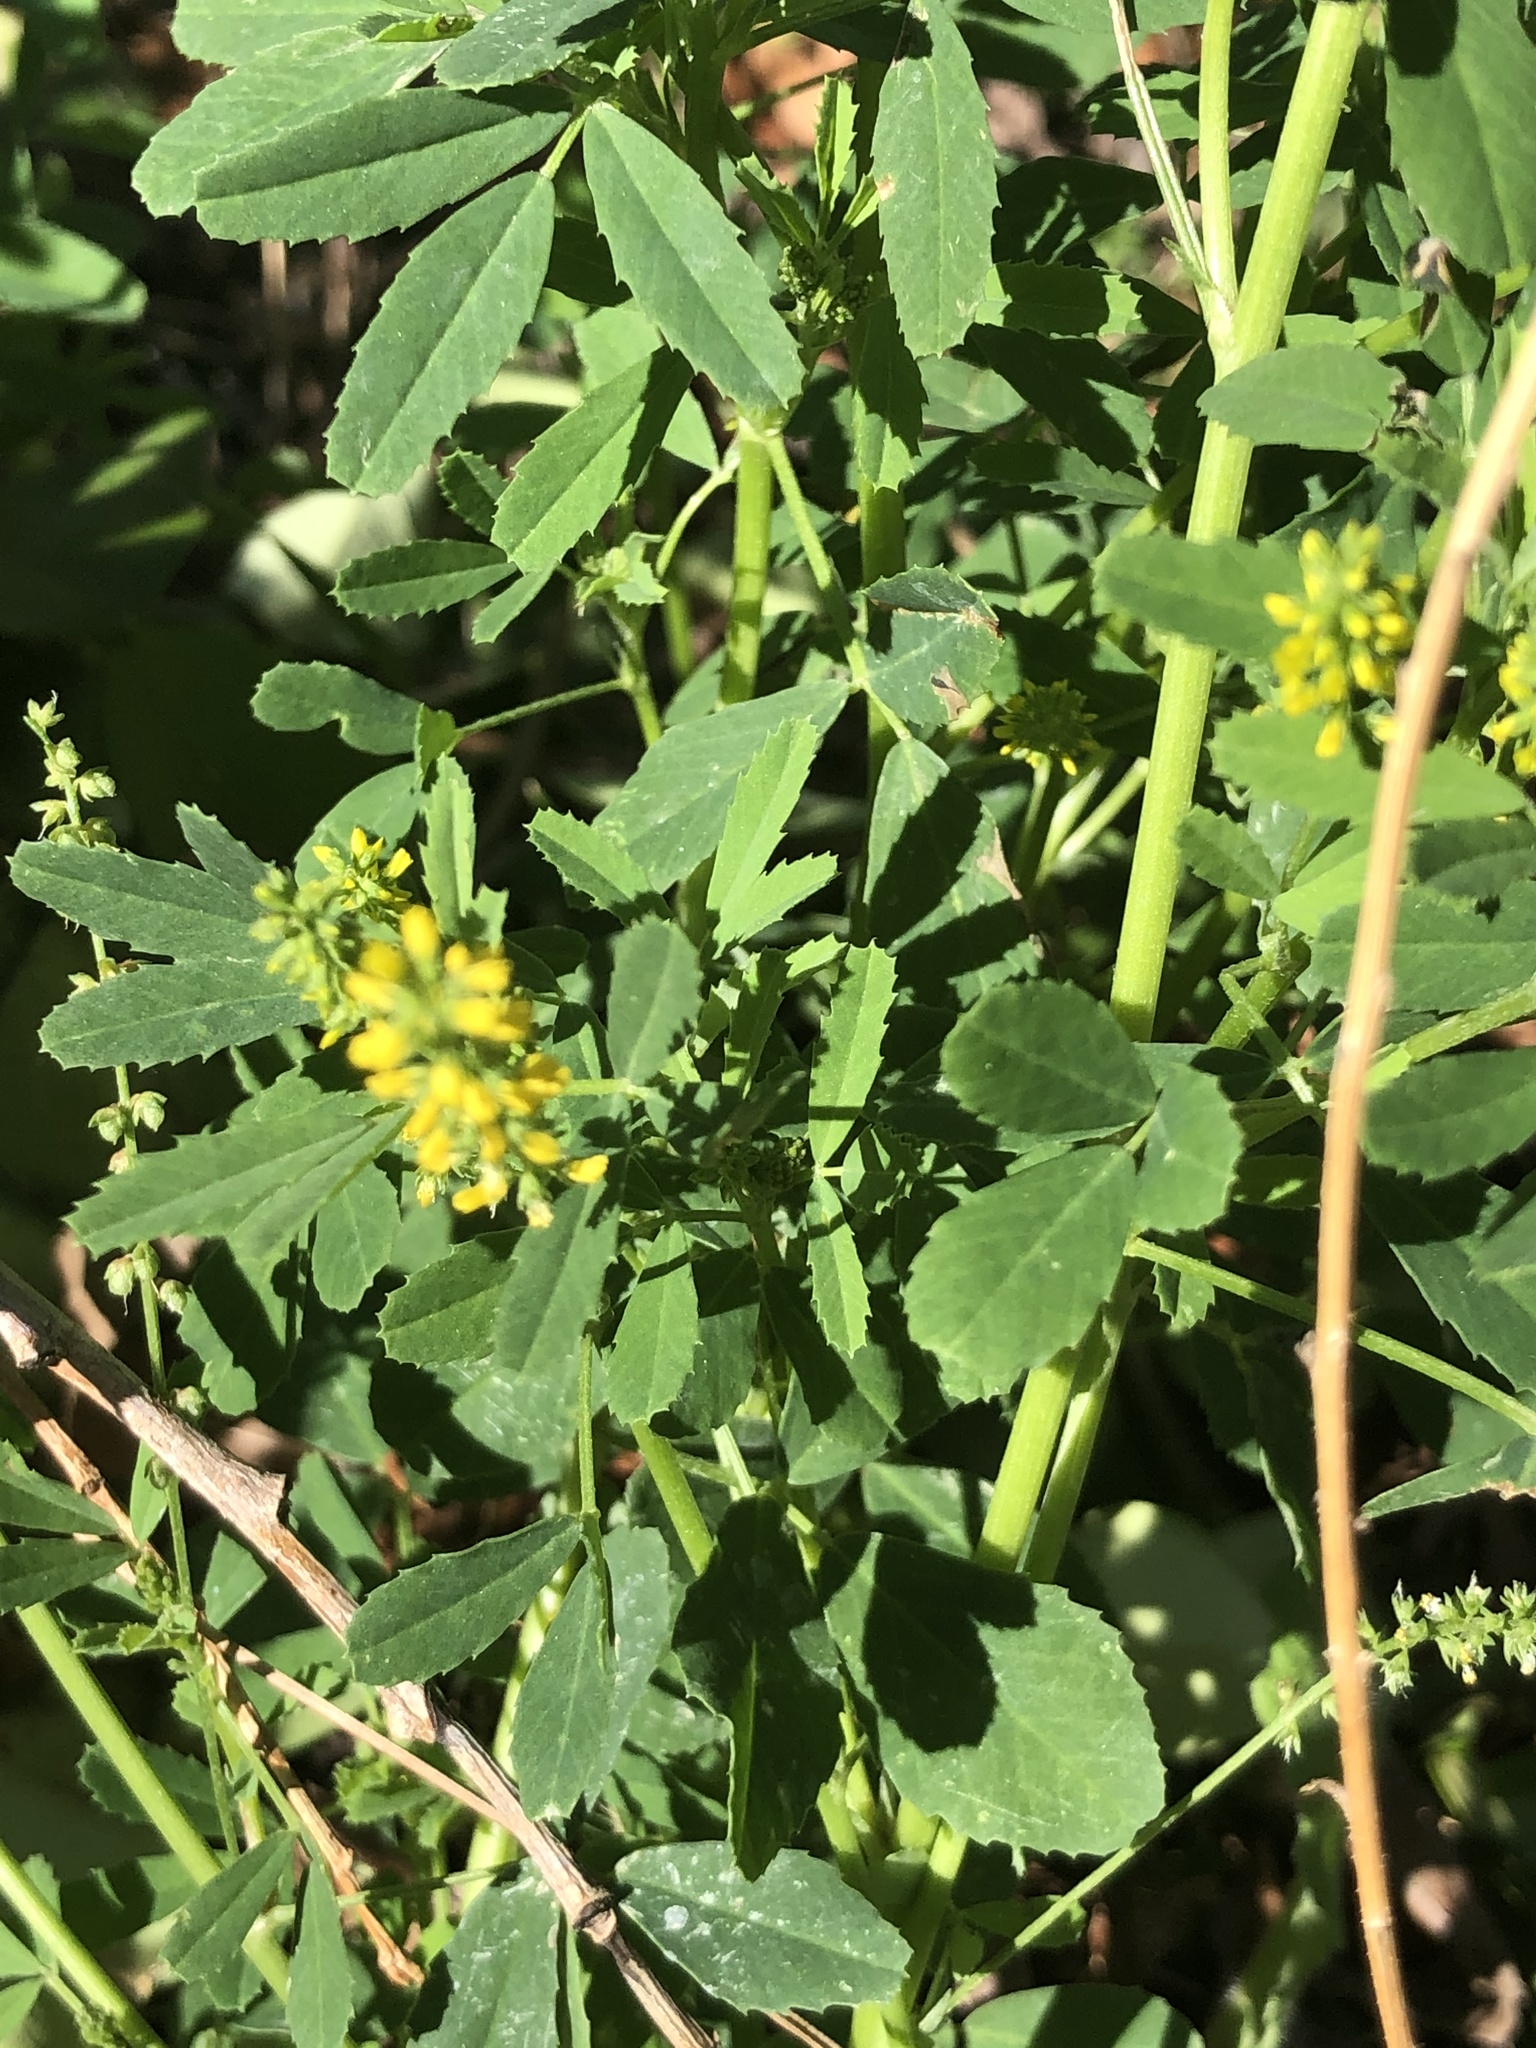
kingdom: Plantae
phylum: Tracheophyta
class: Magnoliopsida
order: Fabales
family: Fabaceae
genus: Melilotus
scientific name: Melilotus indicus
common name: Small melilot
